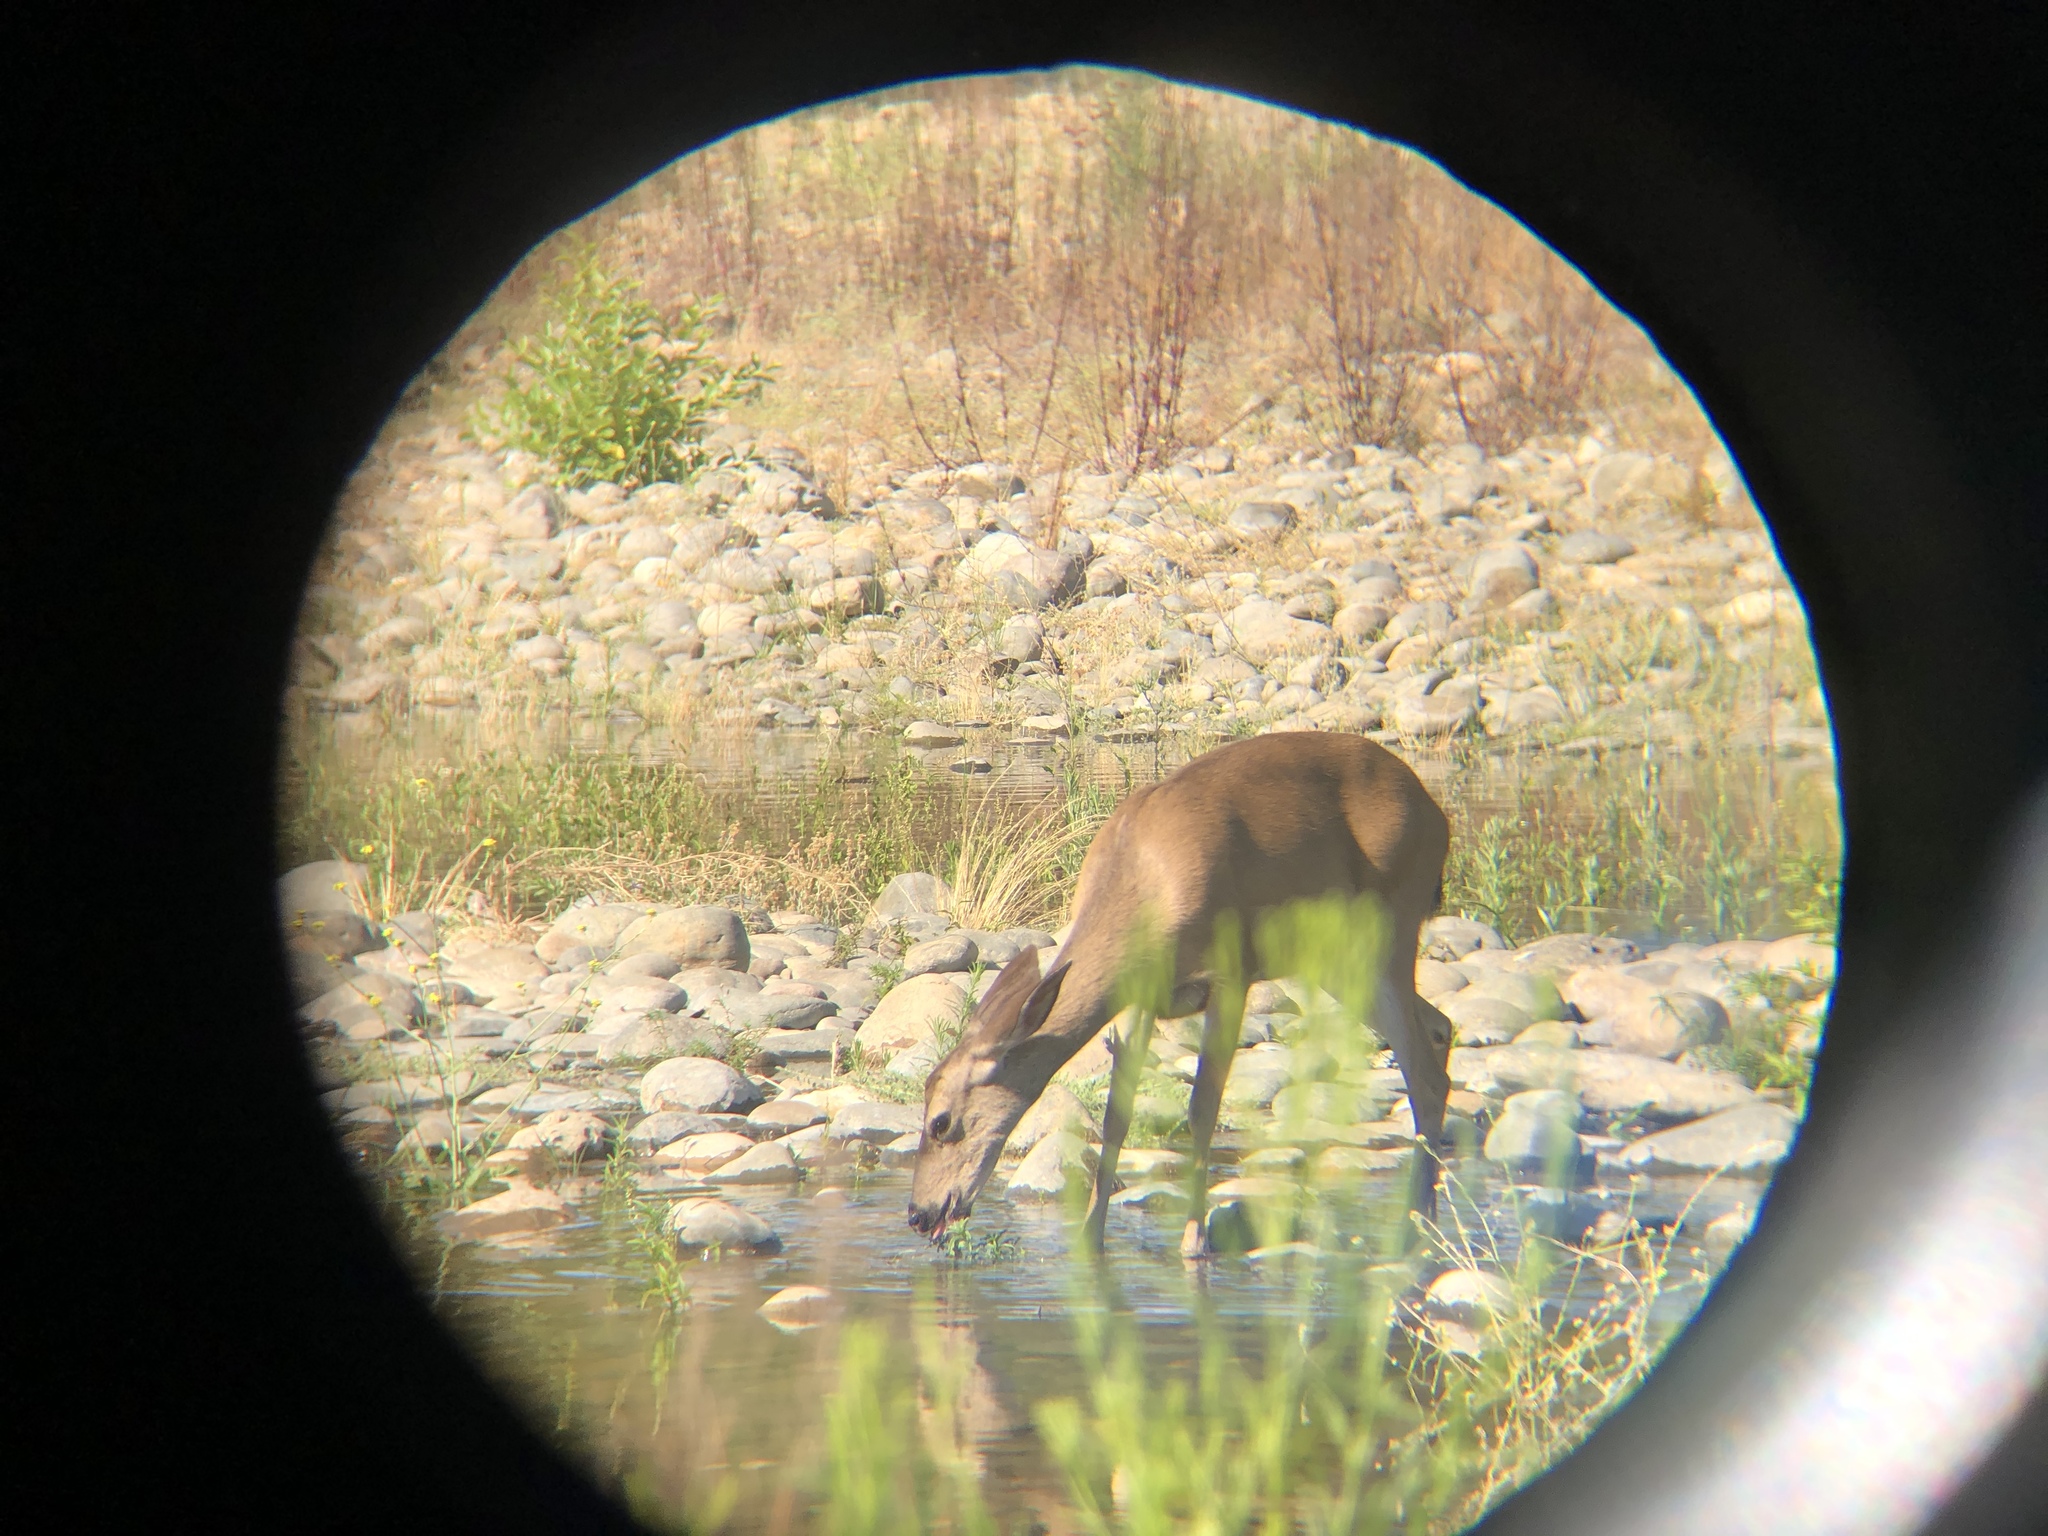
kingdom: Animalia
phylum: Chordata
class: Mammalia
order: Artiodactyla
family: Cervidae
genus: Odocoileus
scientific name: Odocoileus hemionus
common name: Mule deer
